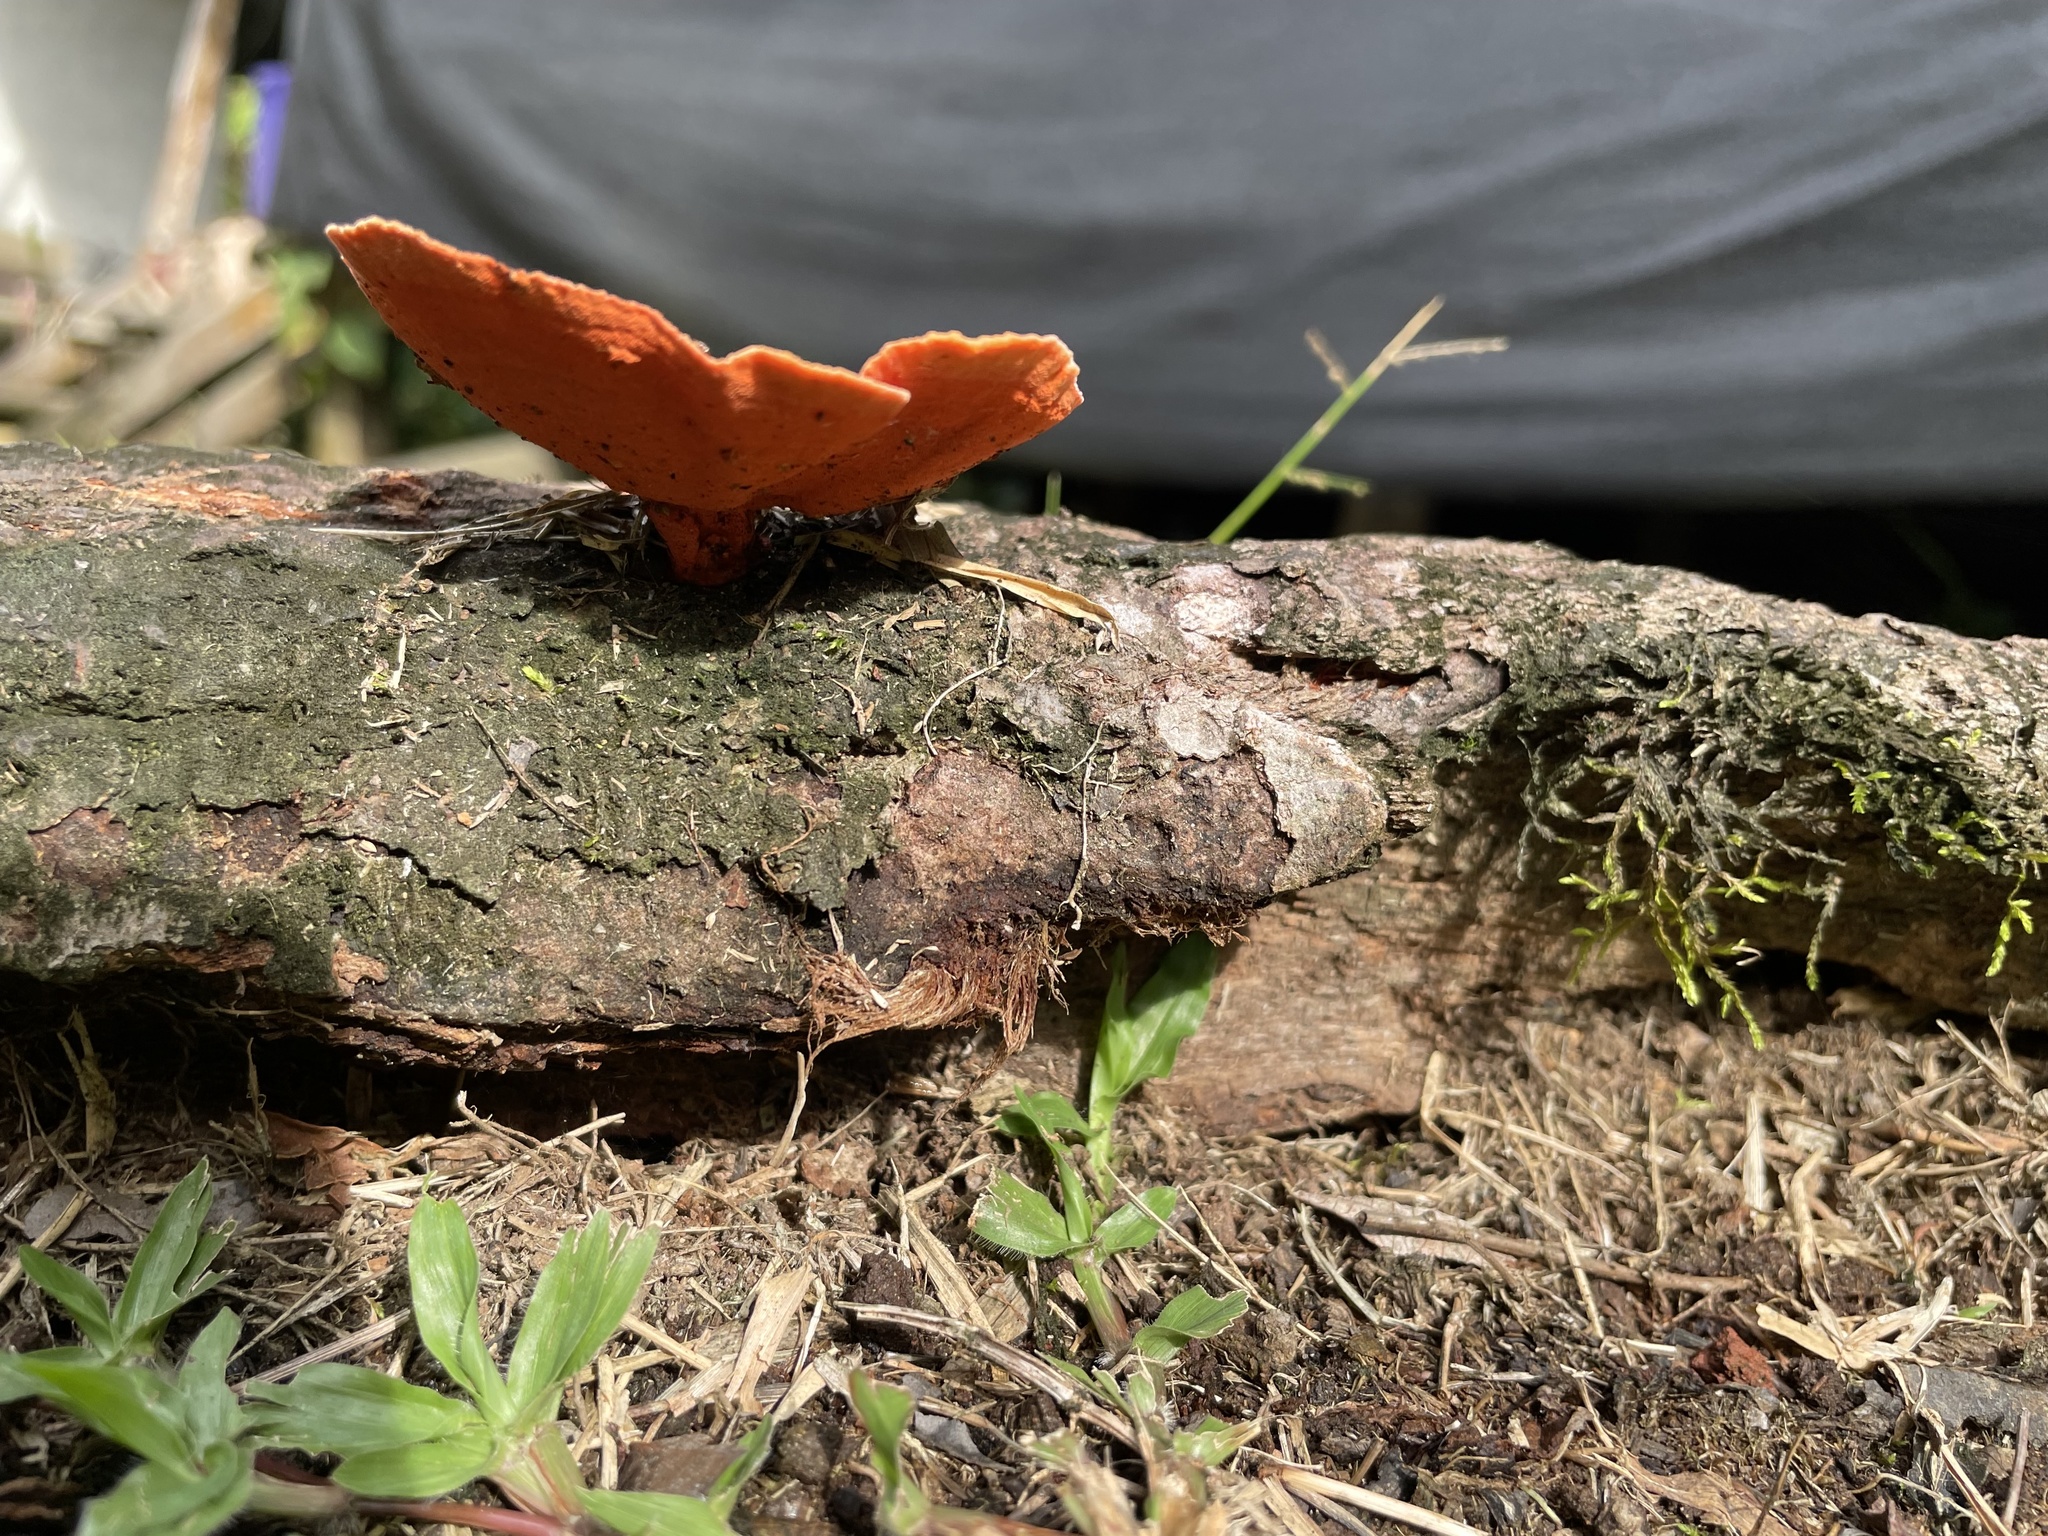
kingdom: Fungi
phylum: Basidiomycota
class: Agaricomycetes
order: Polyporales
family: Polyporaceae
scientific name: Polyporaceae
